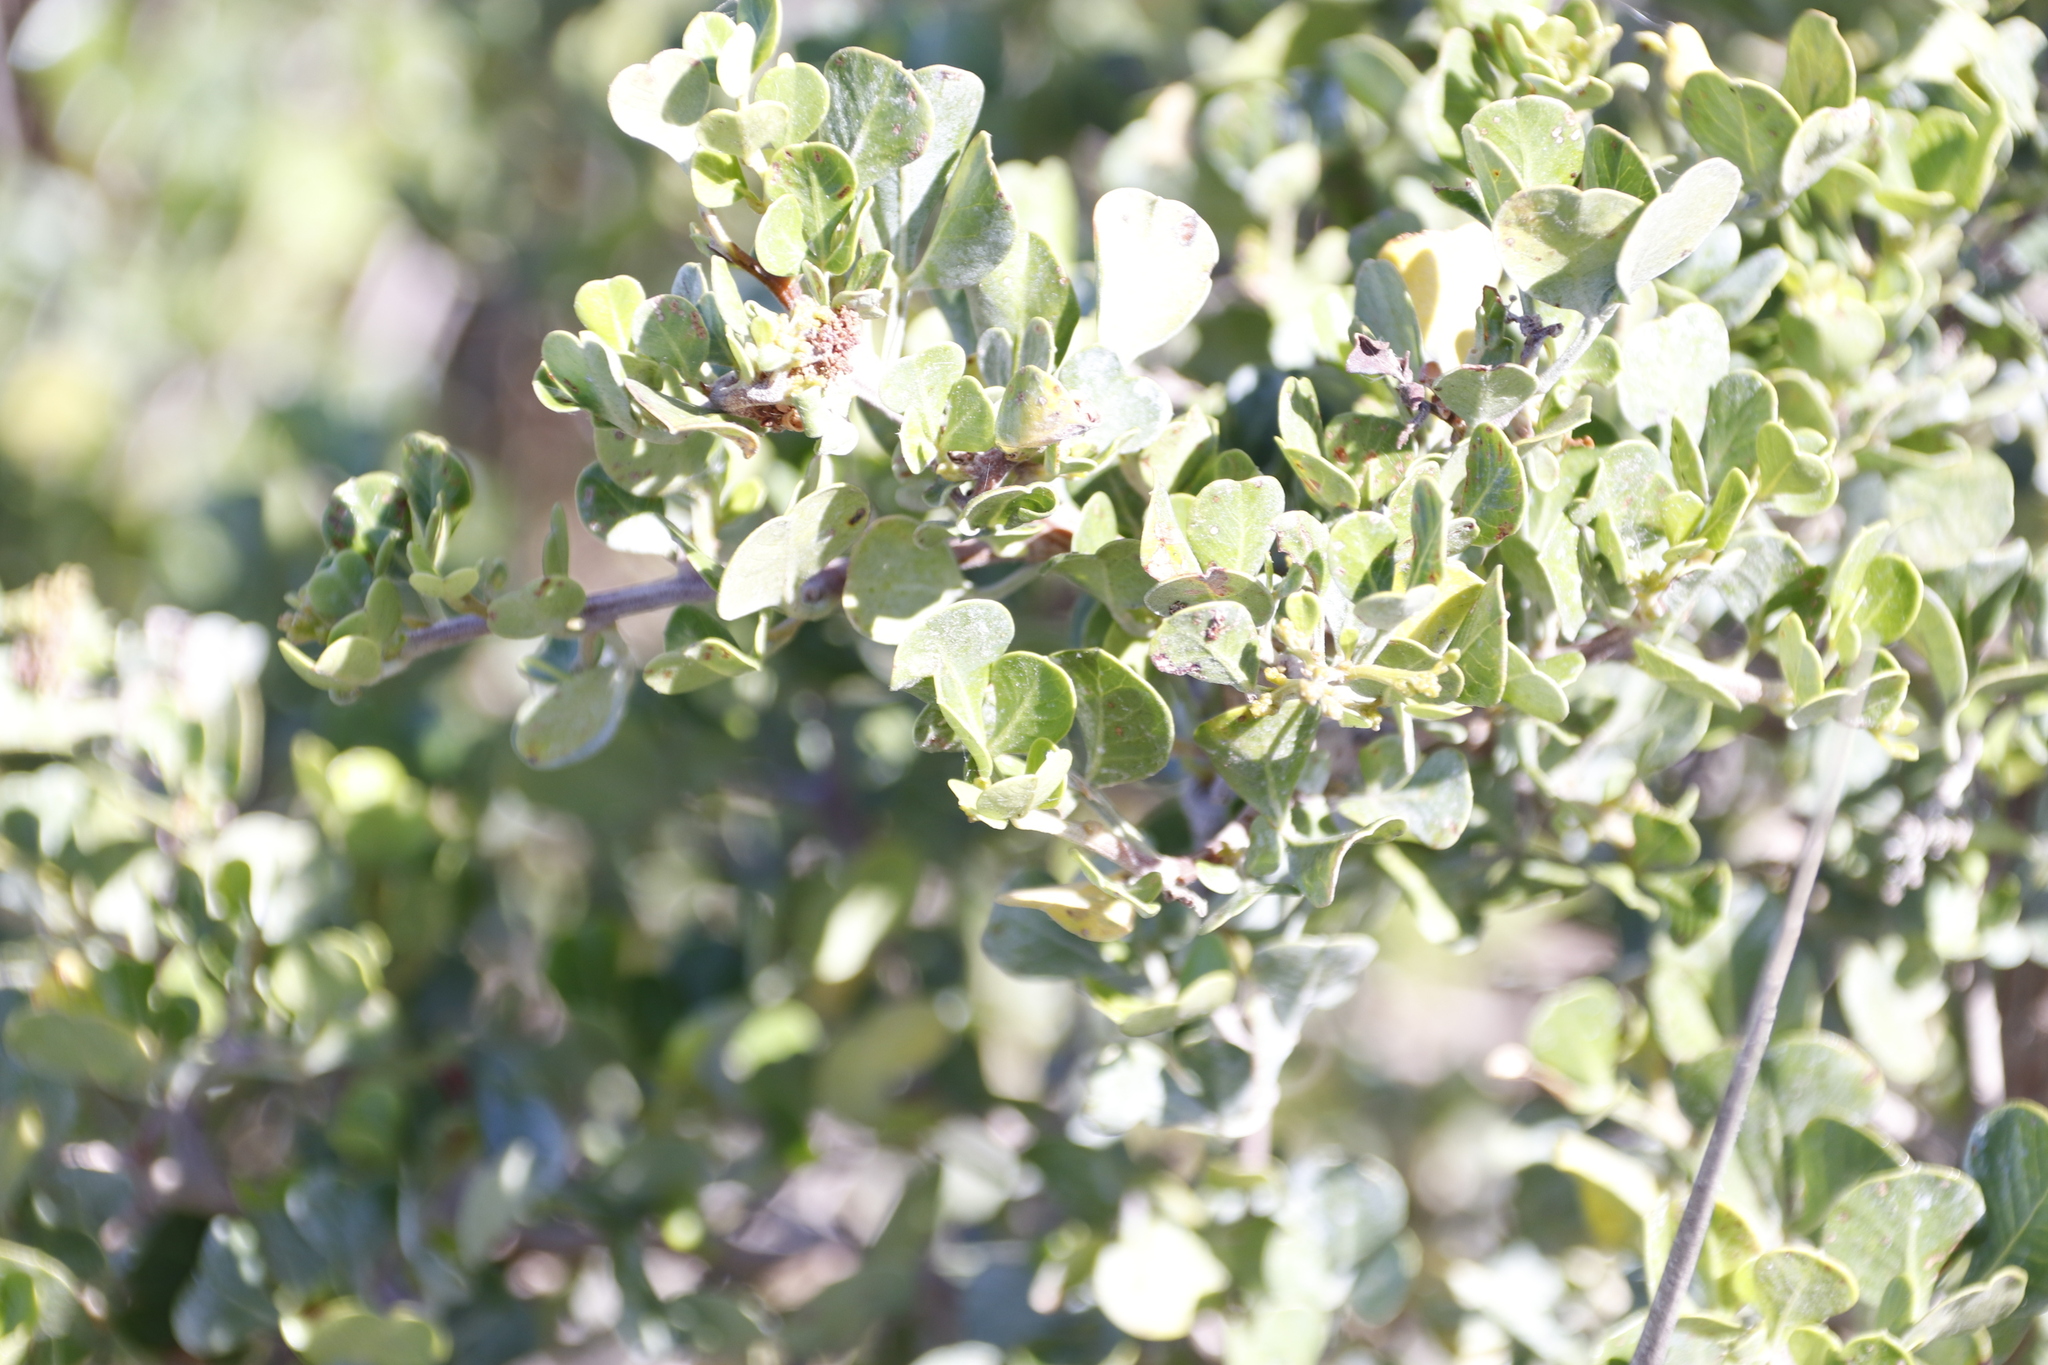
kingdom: Plantae
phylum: Tracheophyta
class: Magnoliopsida
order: Sapindales
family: Anacardiaceae
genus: Searsia
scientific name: Searsia glauca
